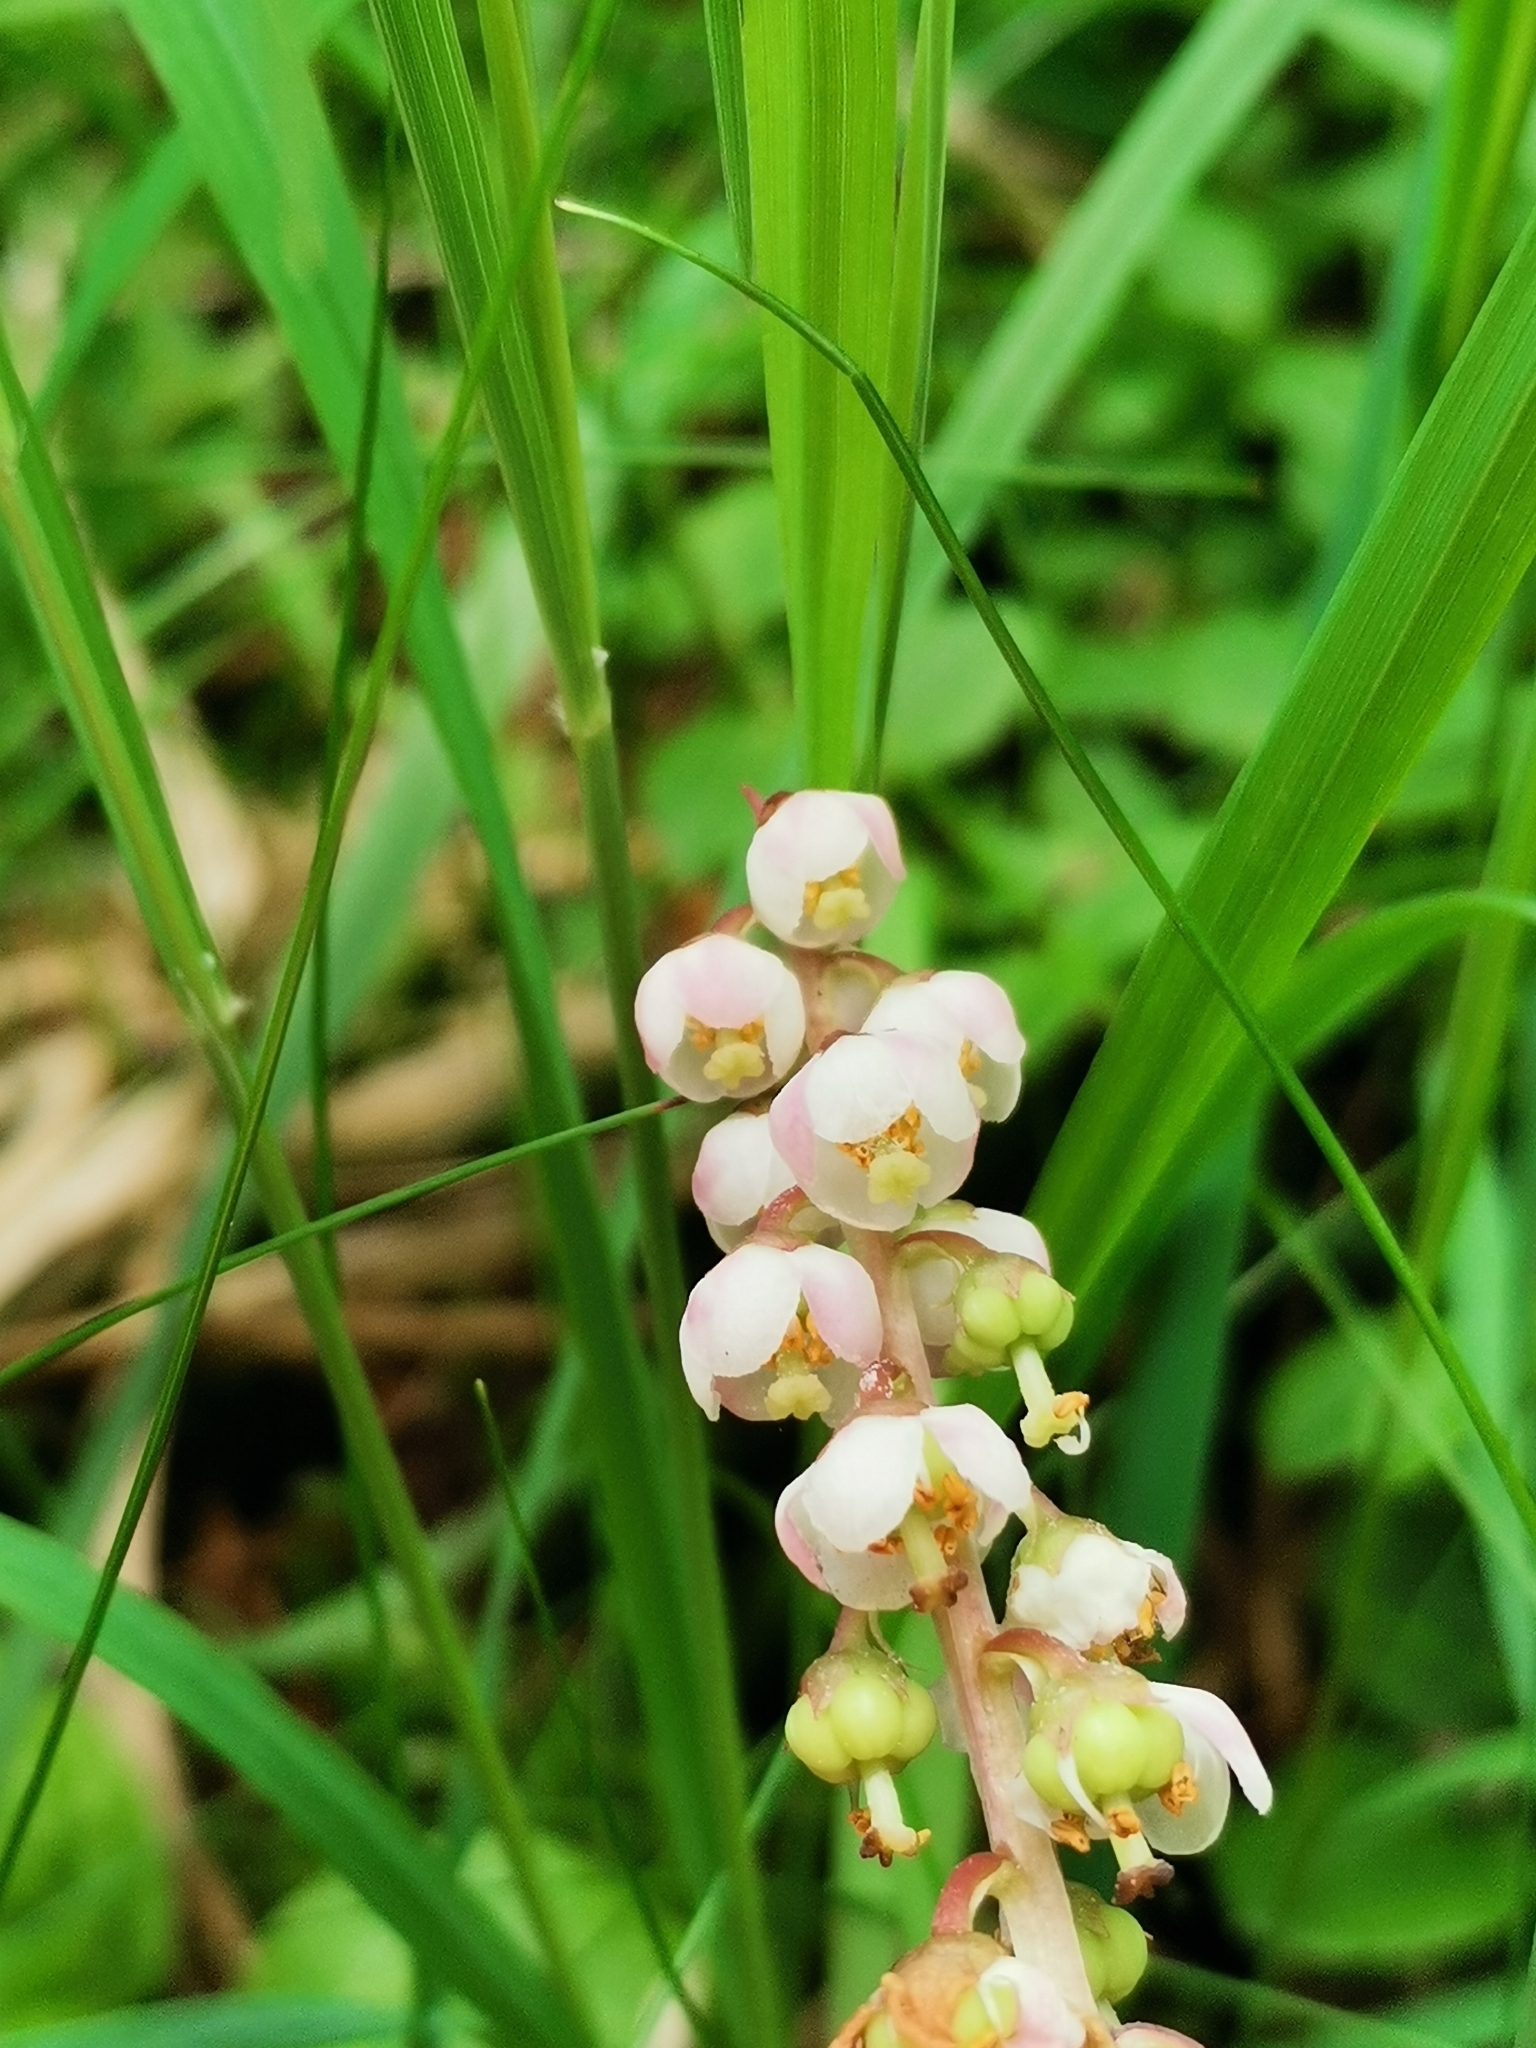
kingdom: Plantae
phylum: Tracheophyta
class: Magnoliopsida
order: Ericales
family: Ericaceae
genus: Pyrola
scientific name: Pyrola minor
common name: Common wintergreen
